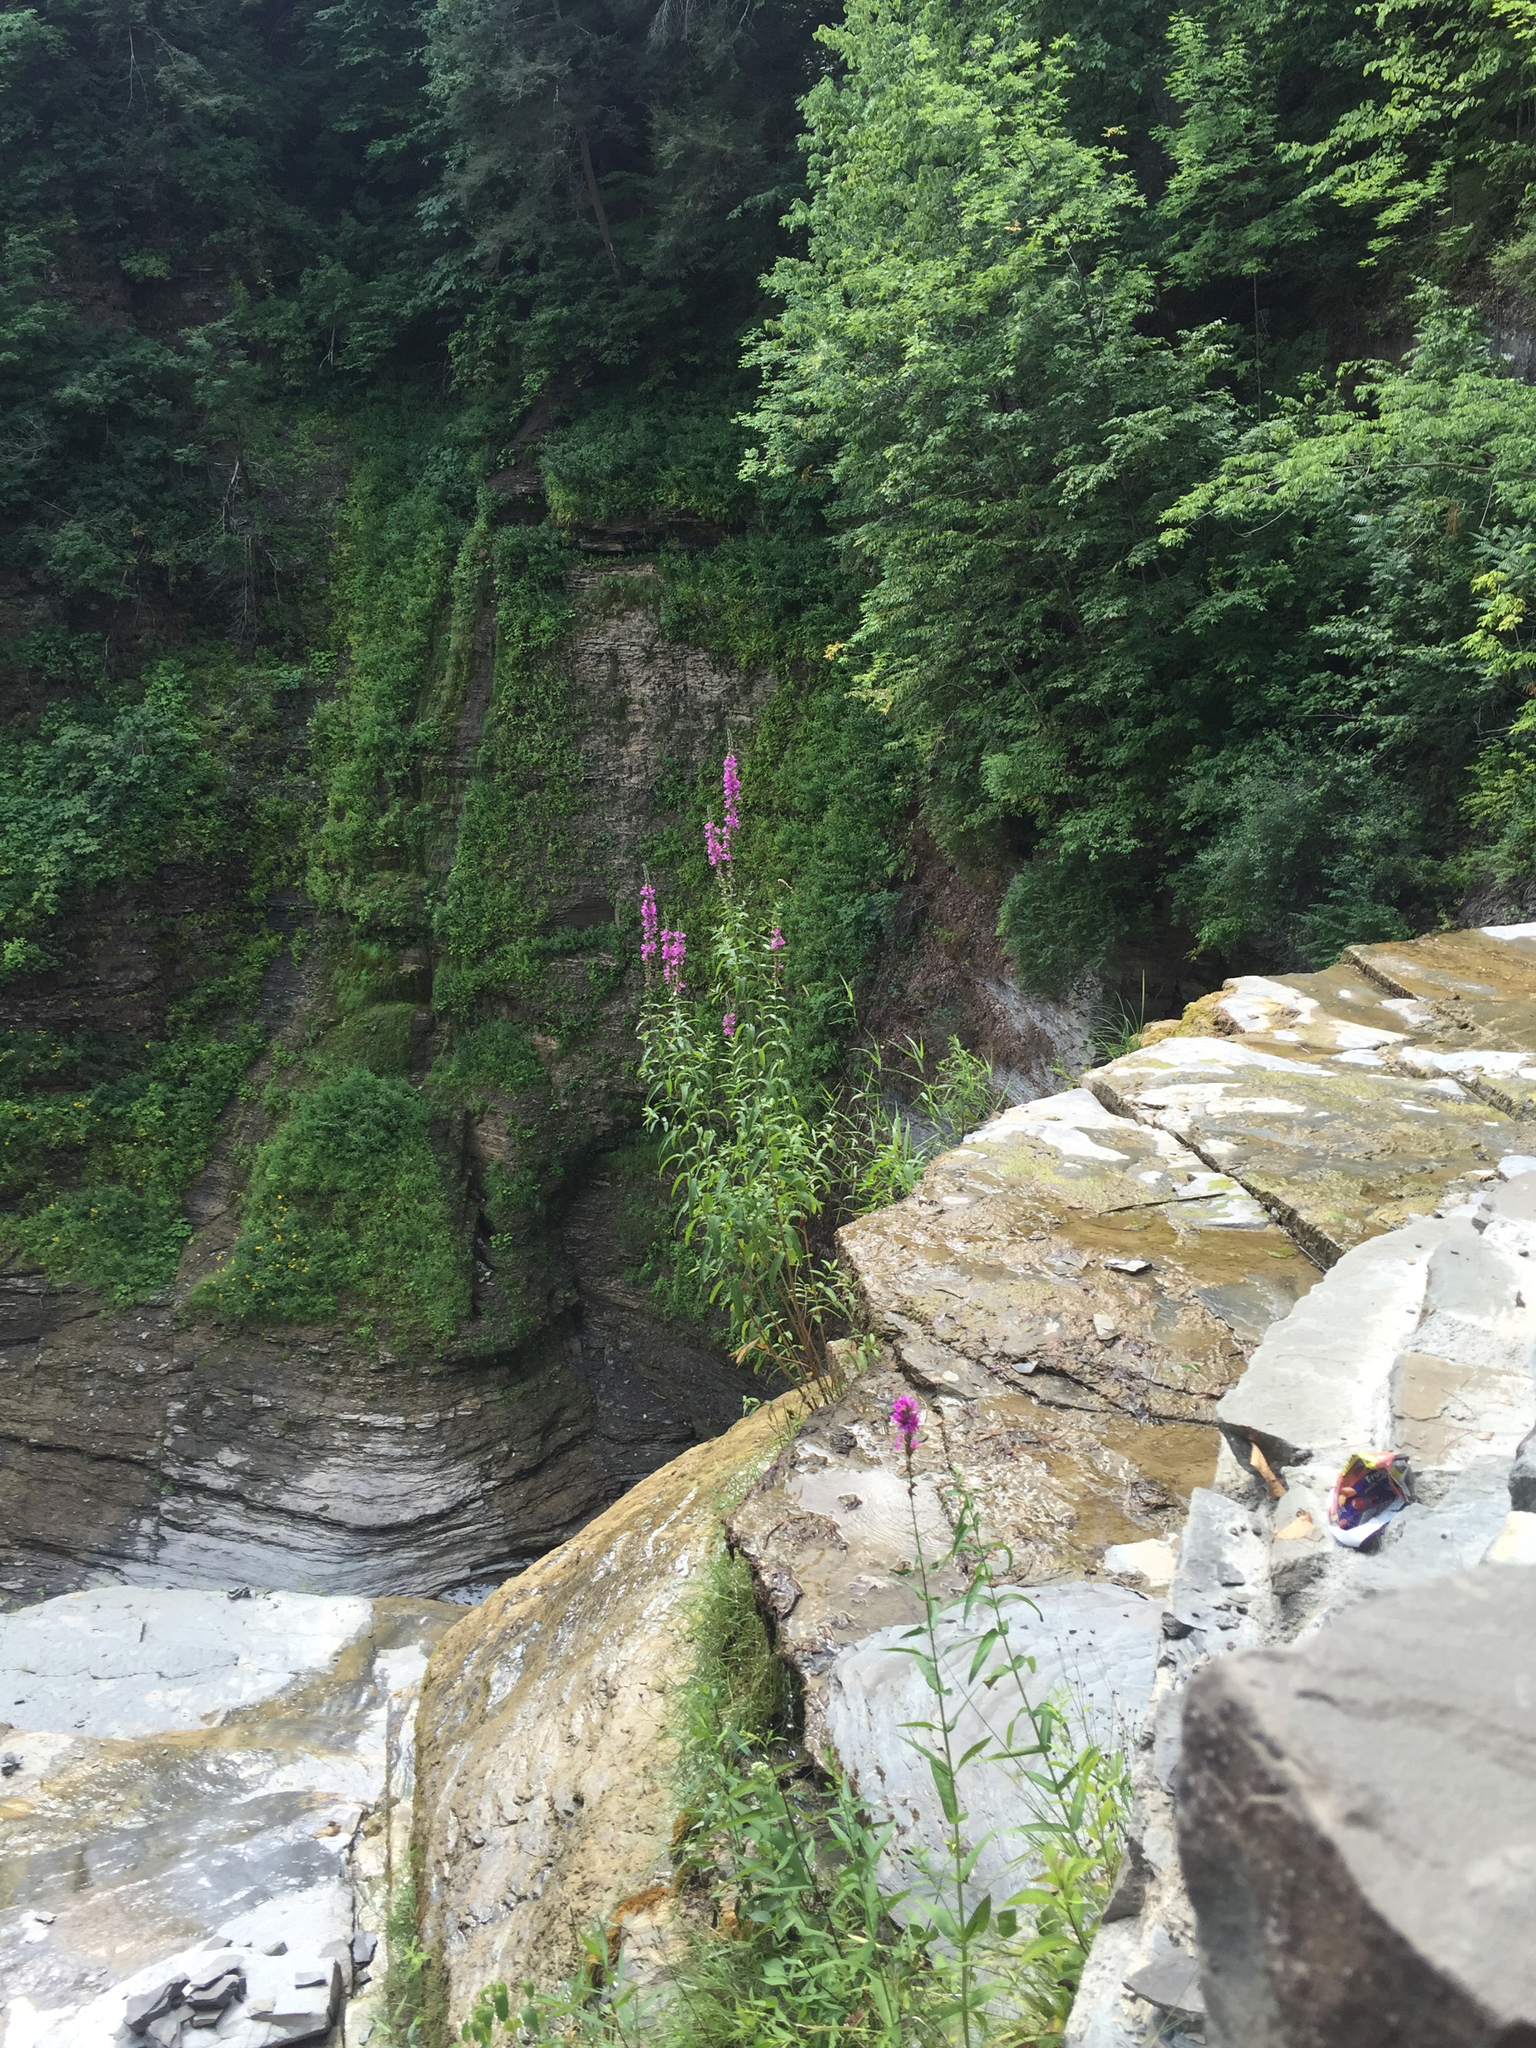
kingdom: Plantae
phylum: Tracheophyta
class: Magnoliopsida
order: Myrtales
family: Lythraceae
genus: Lythrum
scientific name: Lythrum salicaria
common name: Purple loosestrife
